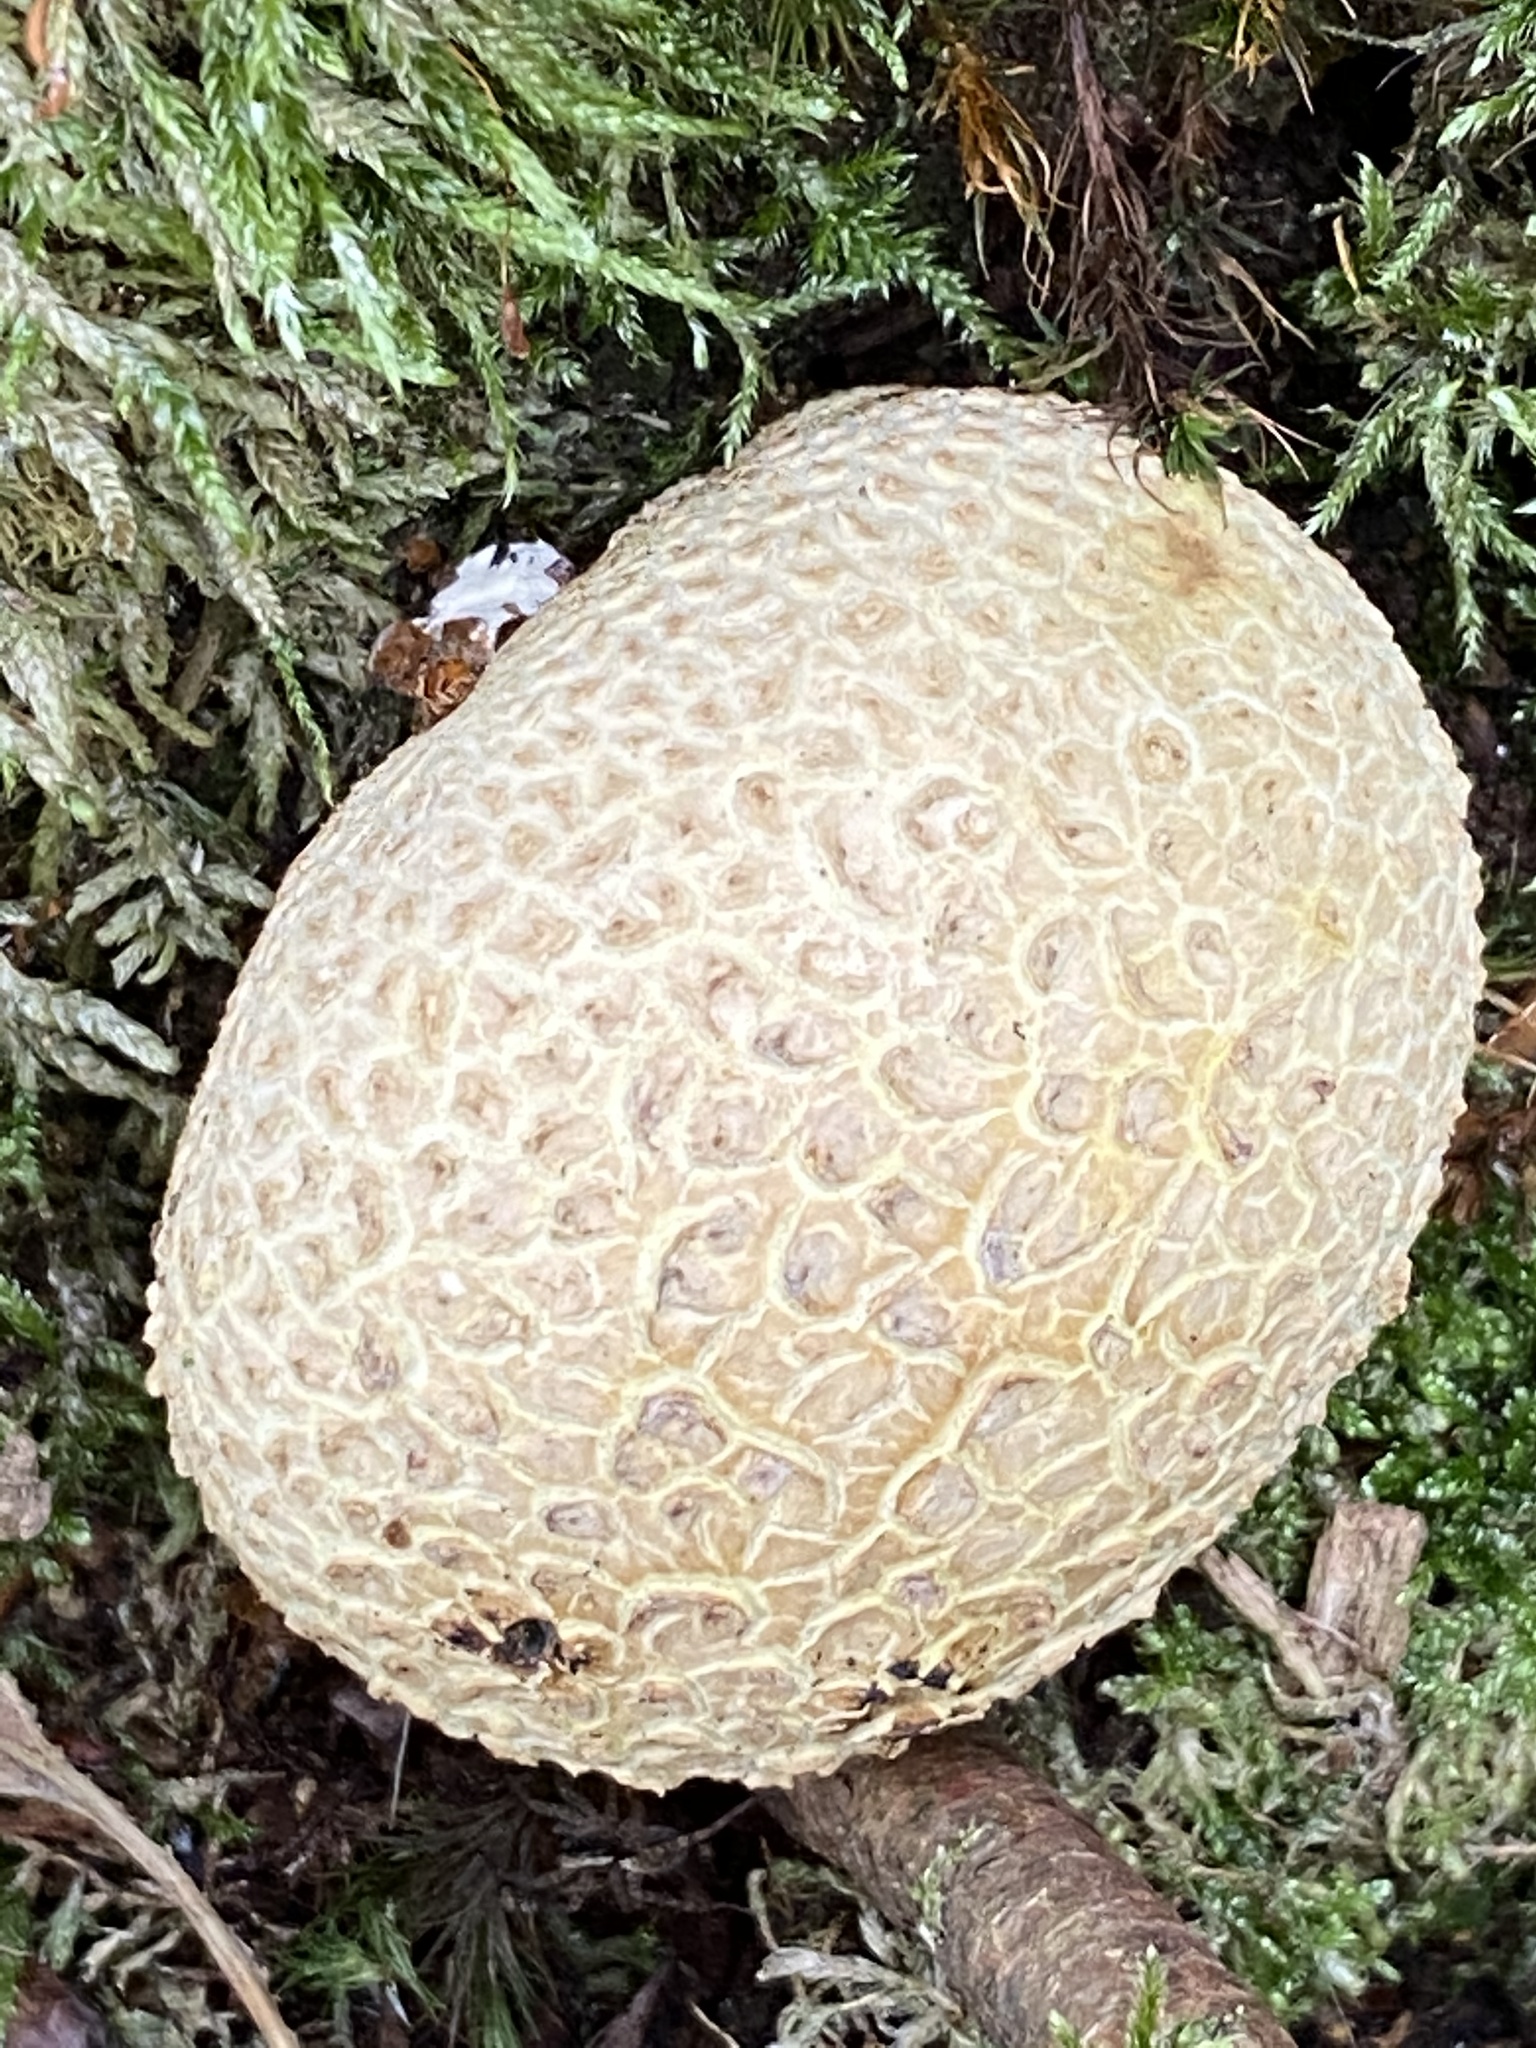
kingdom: Fungi
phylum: Basidiomycota
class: Agaricomycetes
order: Boletales
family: Sclerodermataceae
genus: Scleroderma
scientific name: Scleroderma citrinum
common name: Common earthball
